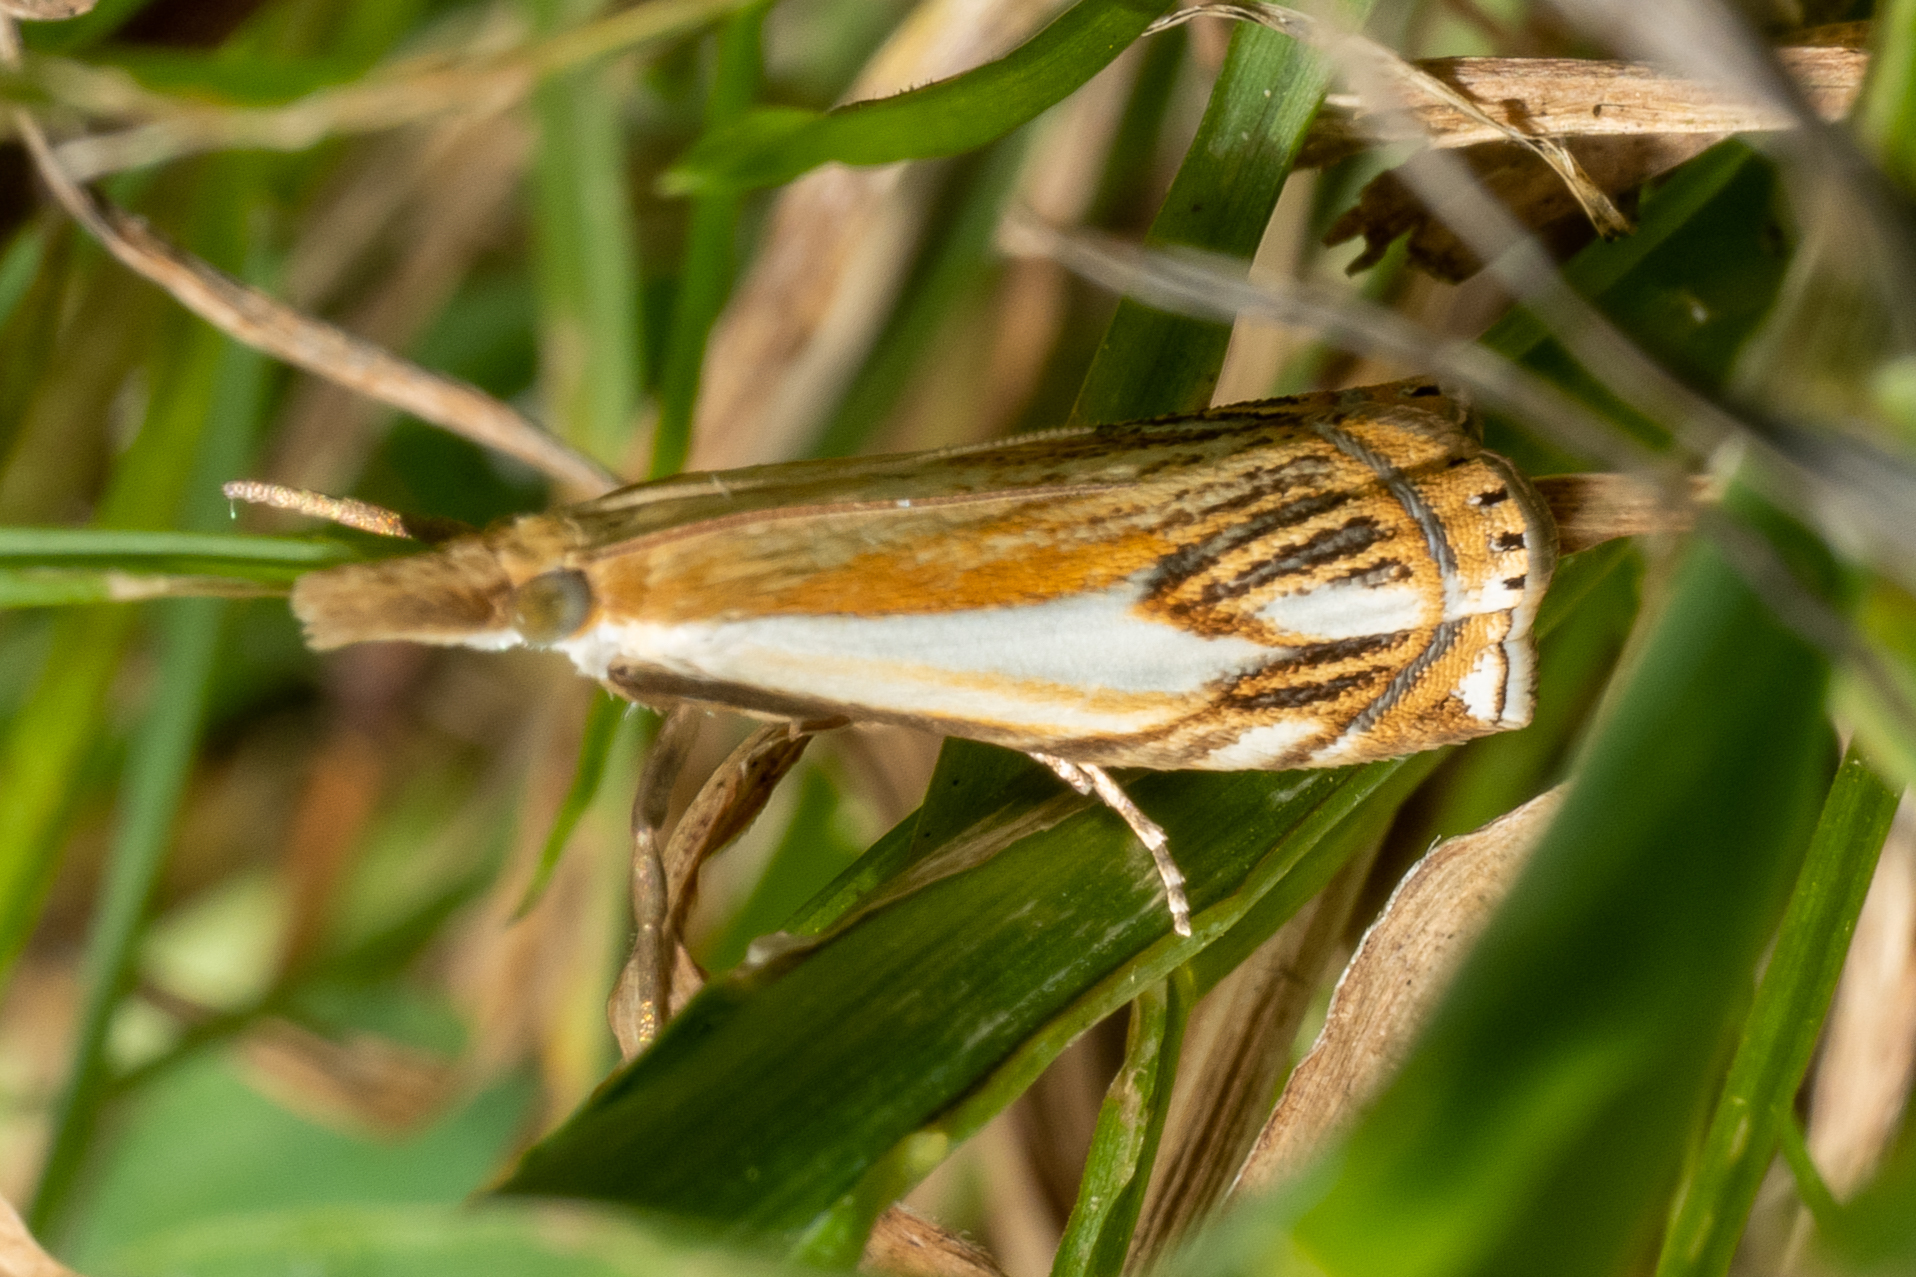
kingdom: Animalia
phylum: Arthropoda
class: Insecta
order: Lepidoptera
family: Crambidae
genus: Crambus
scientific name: Crambus agitatellus
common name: Double-banded grass-veneer
